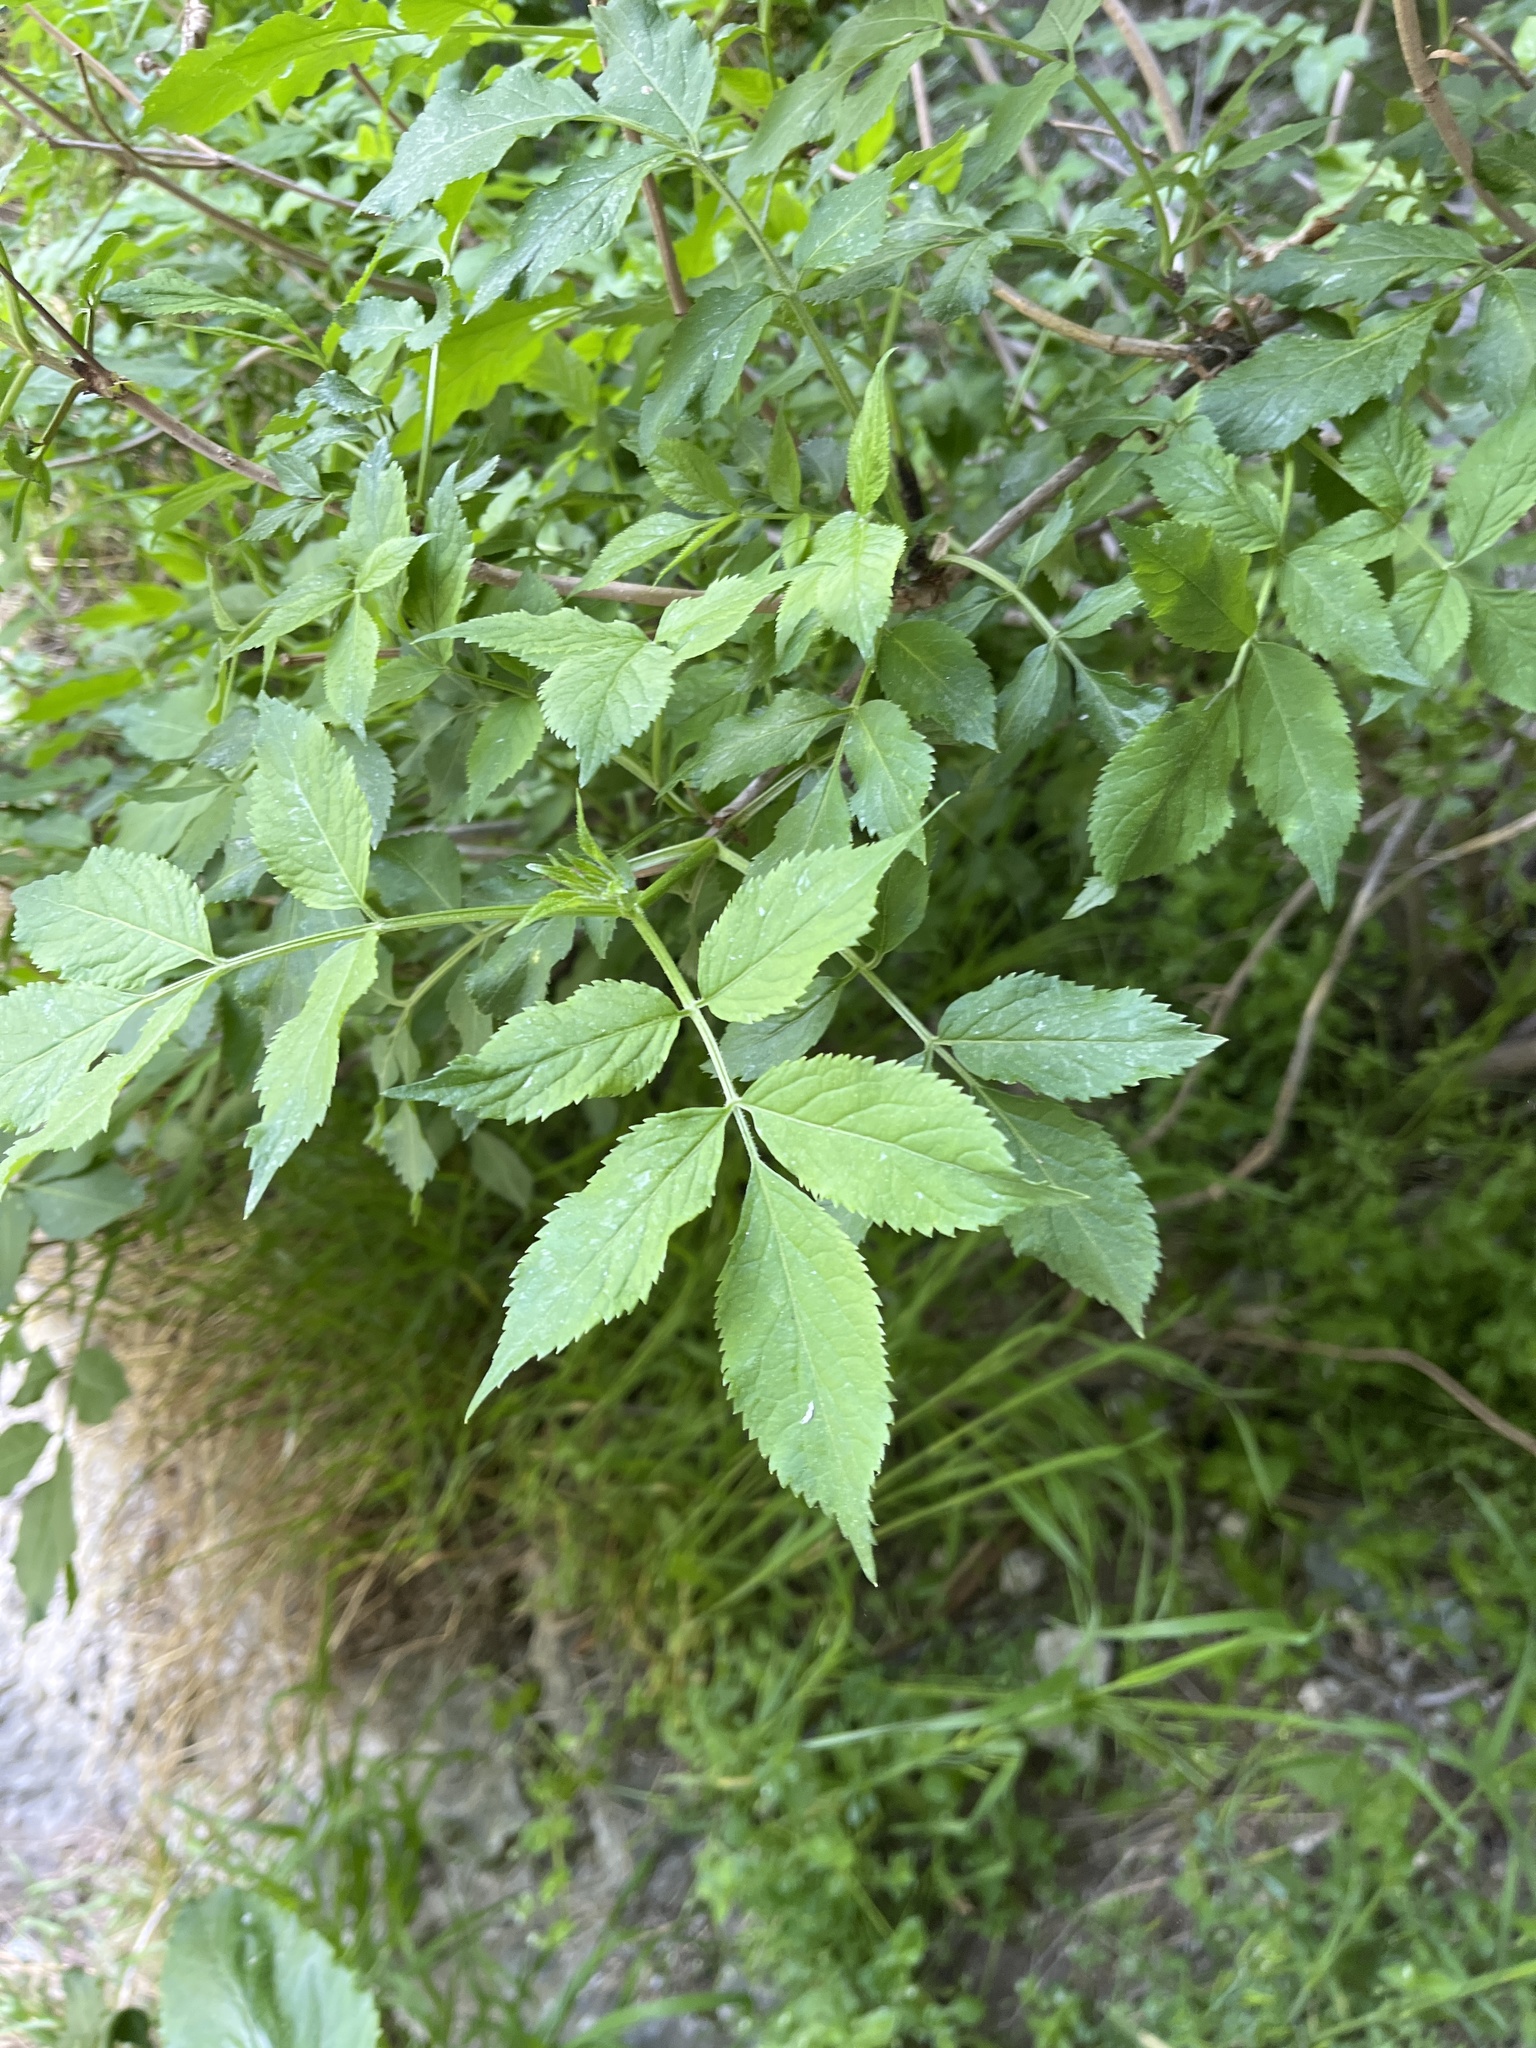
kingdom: Plantae
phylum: Tracheophyta
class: Magnoliopsida
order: Dipsacales
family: Viburnaceae
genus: Sambucus
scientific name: Sambucus nigra
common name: Elder
